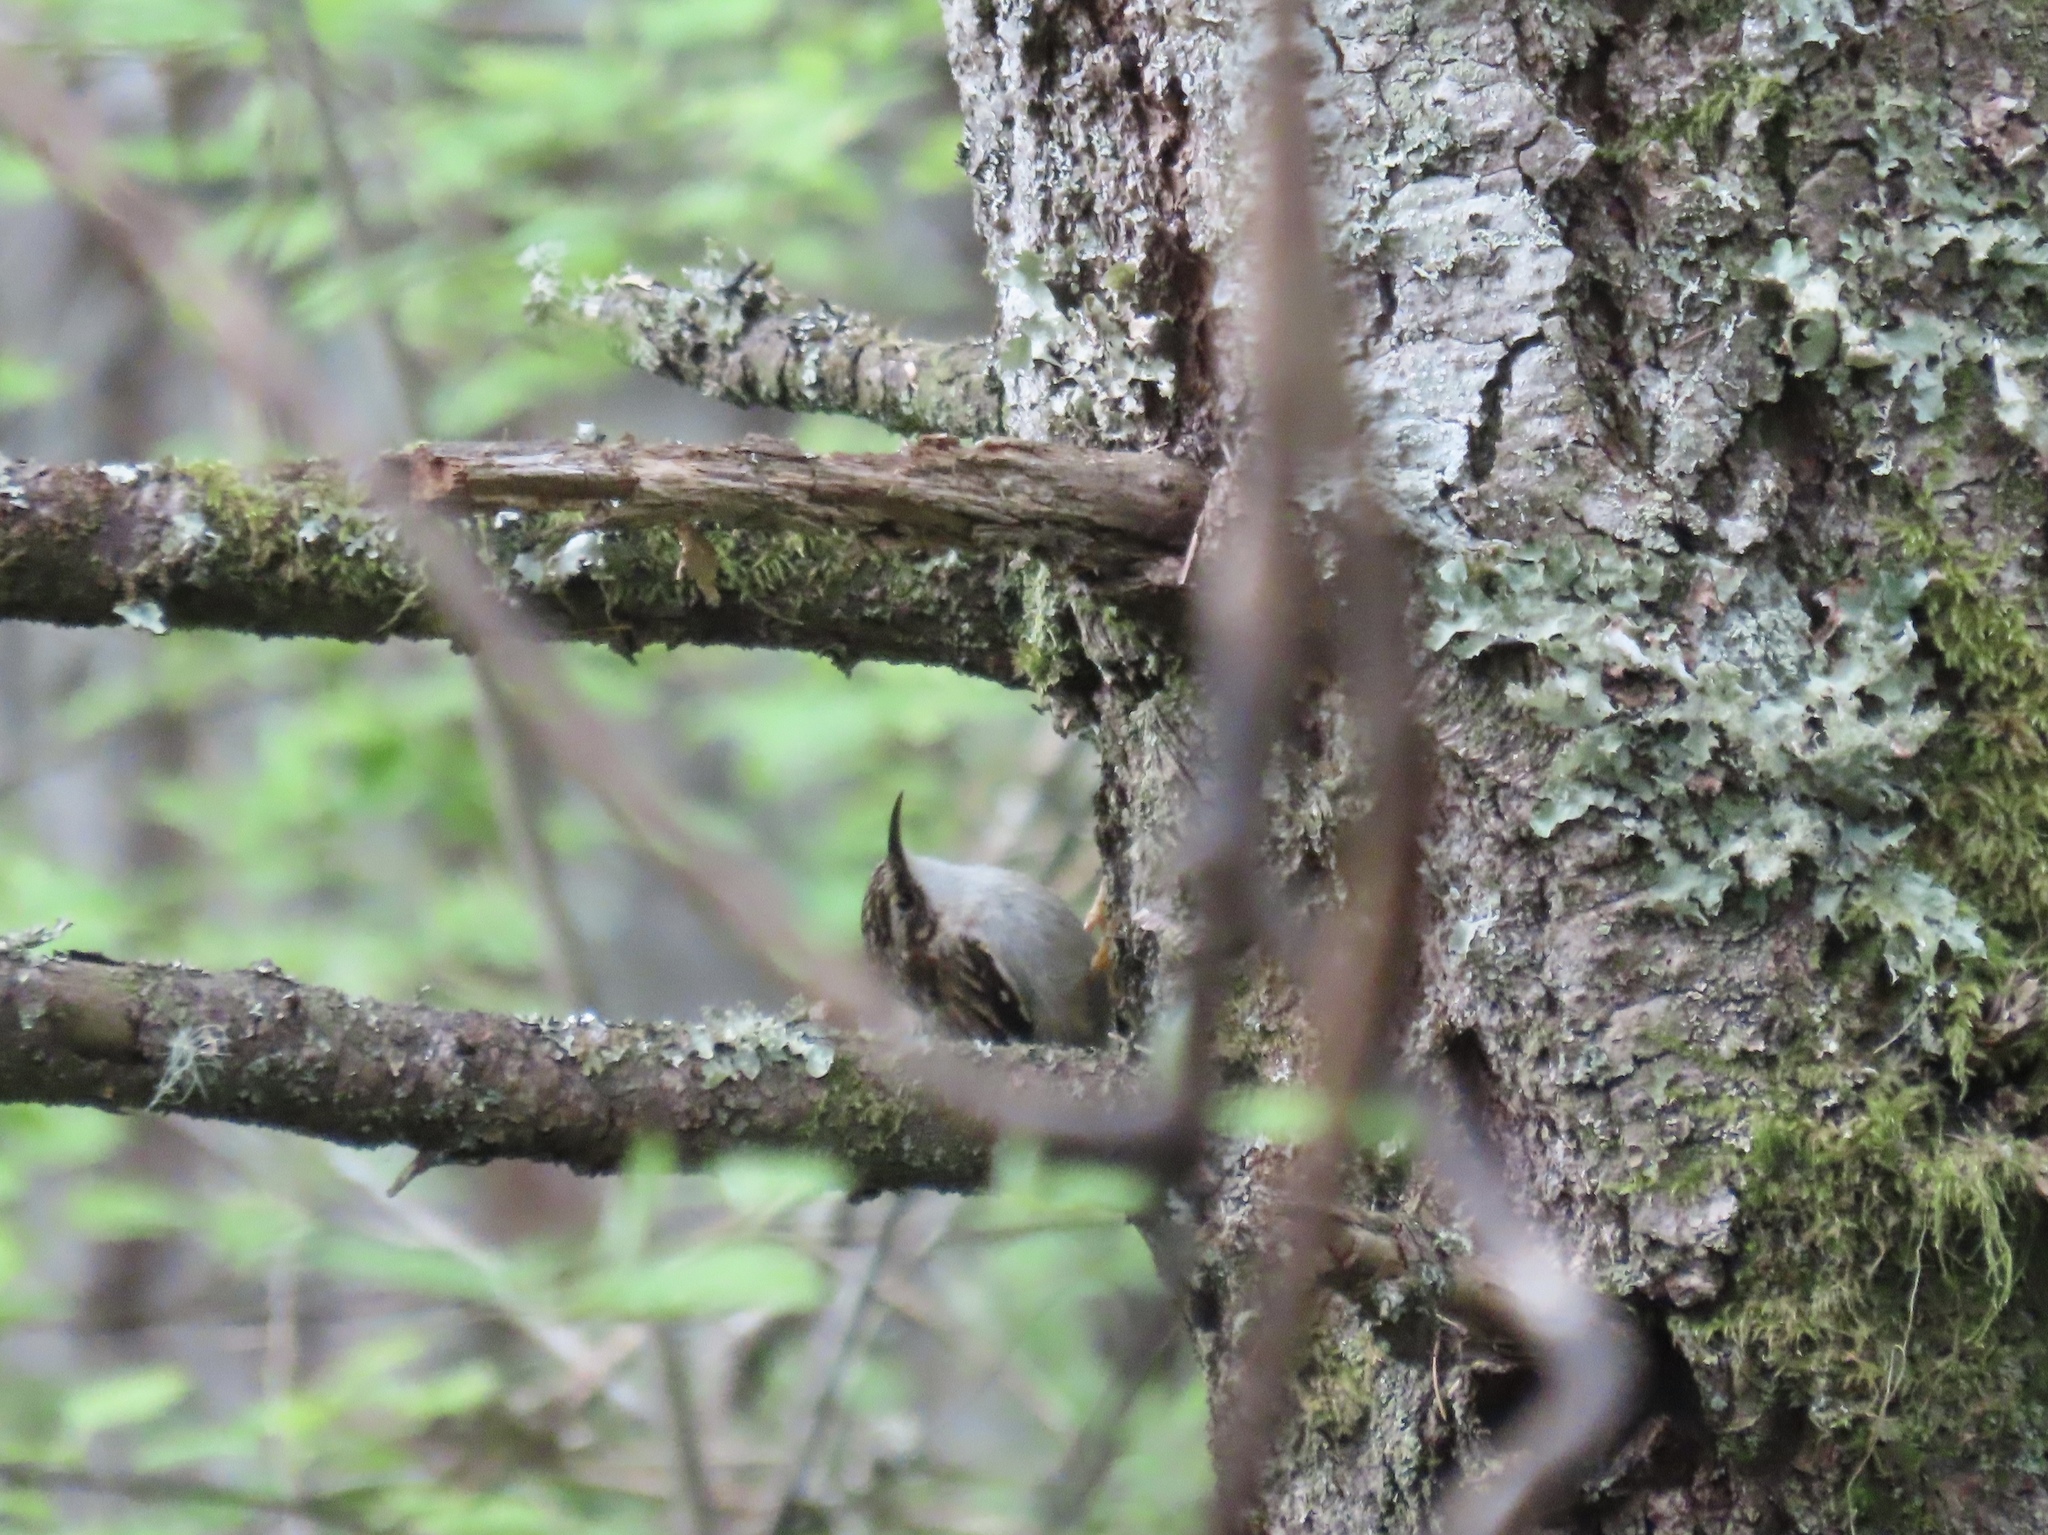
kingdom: Animalia
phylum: Chordata
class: Aves
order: Passeriformes
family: Certhiidae
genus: Certhia
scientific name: Certhia americana
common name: Brown creeper
